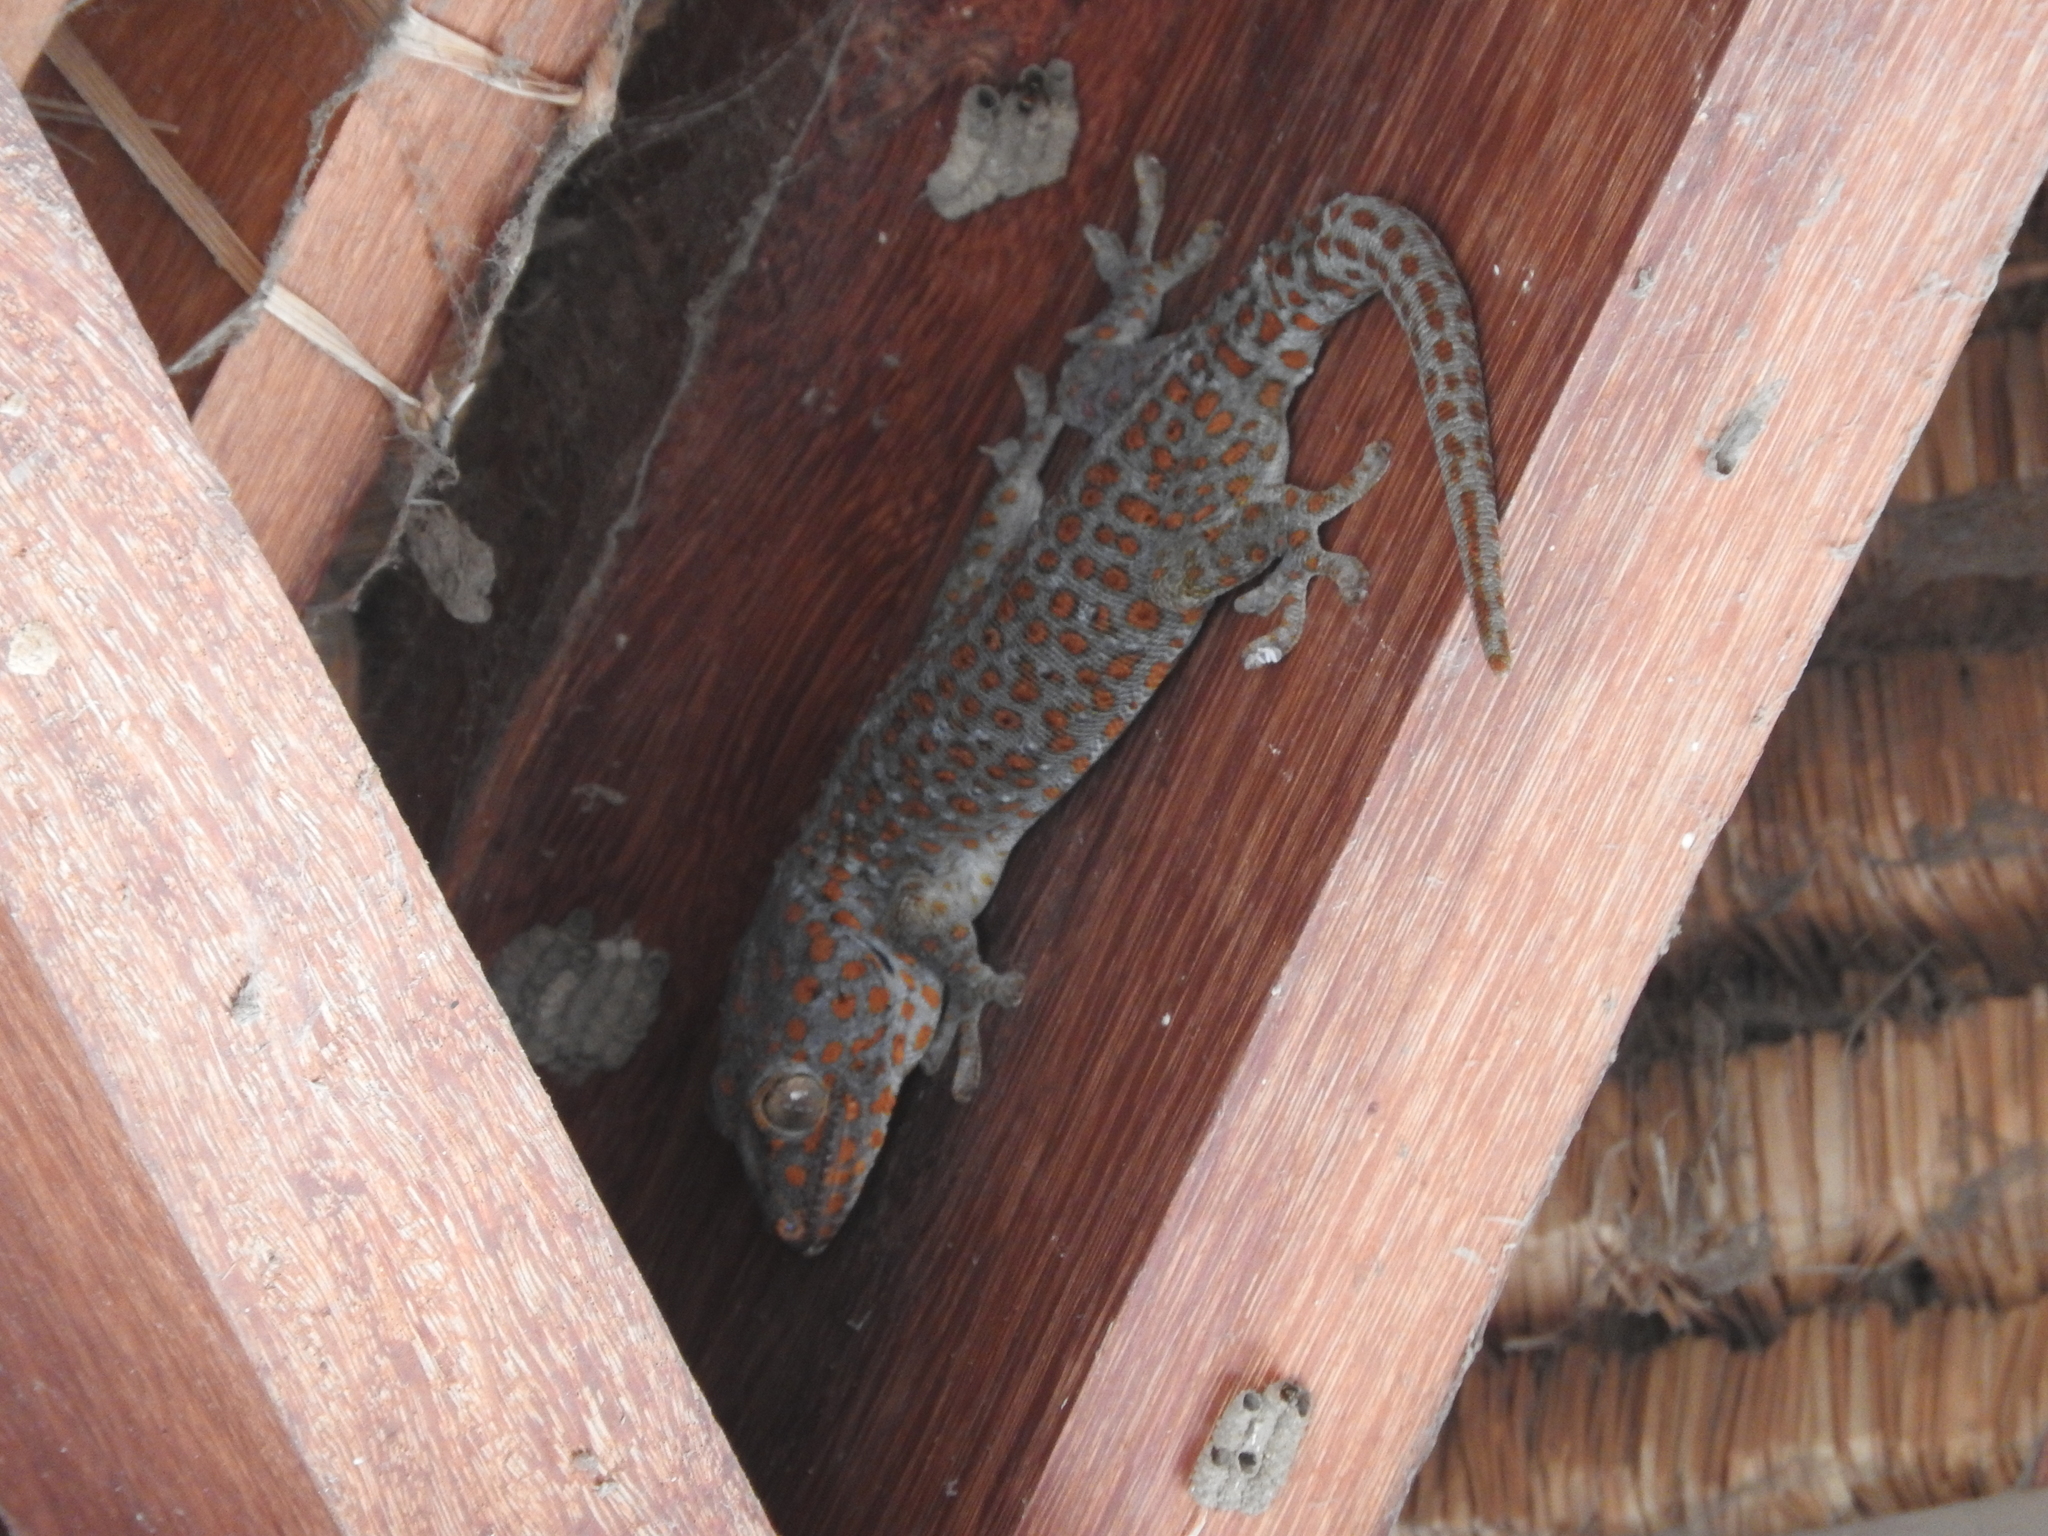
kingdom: Animalia
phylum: Chordata
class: Squamata
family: Gekkonidae
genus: Gekko
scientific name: Gekko gecko
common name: Tokay gecko
